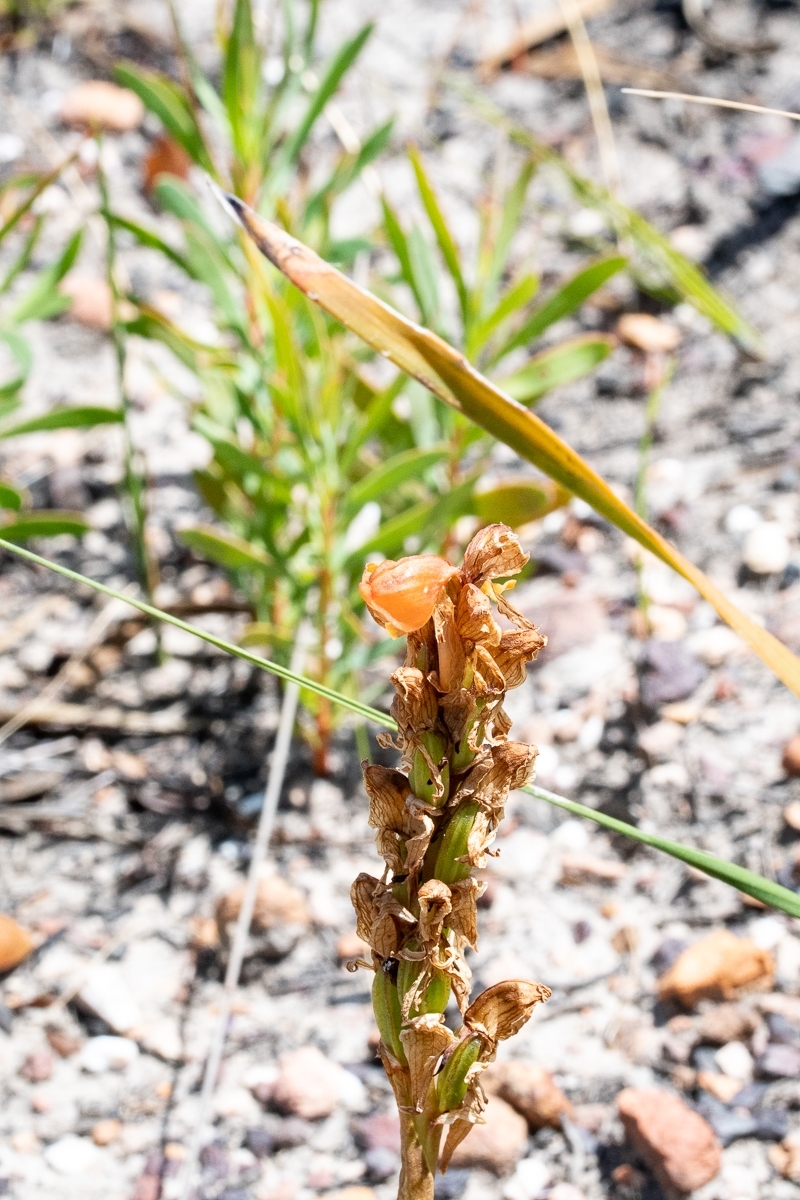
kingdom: Plantae
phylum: Tracheophyta
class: Liliopsida
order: Asparagales
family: Orchidaceae
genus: Satyrium
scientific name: Satyrium coriifolium
